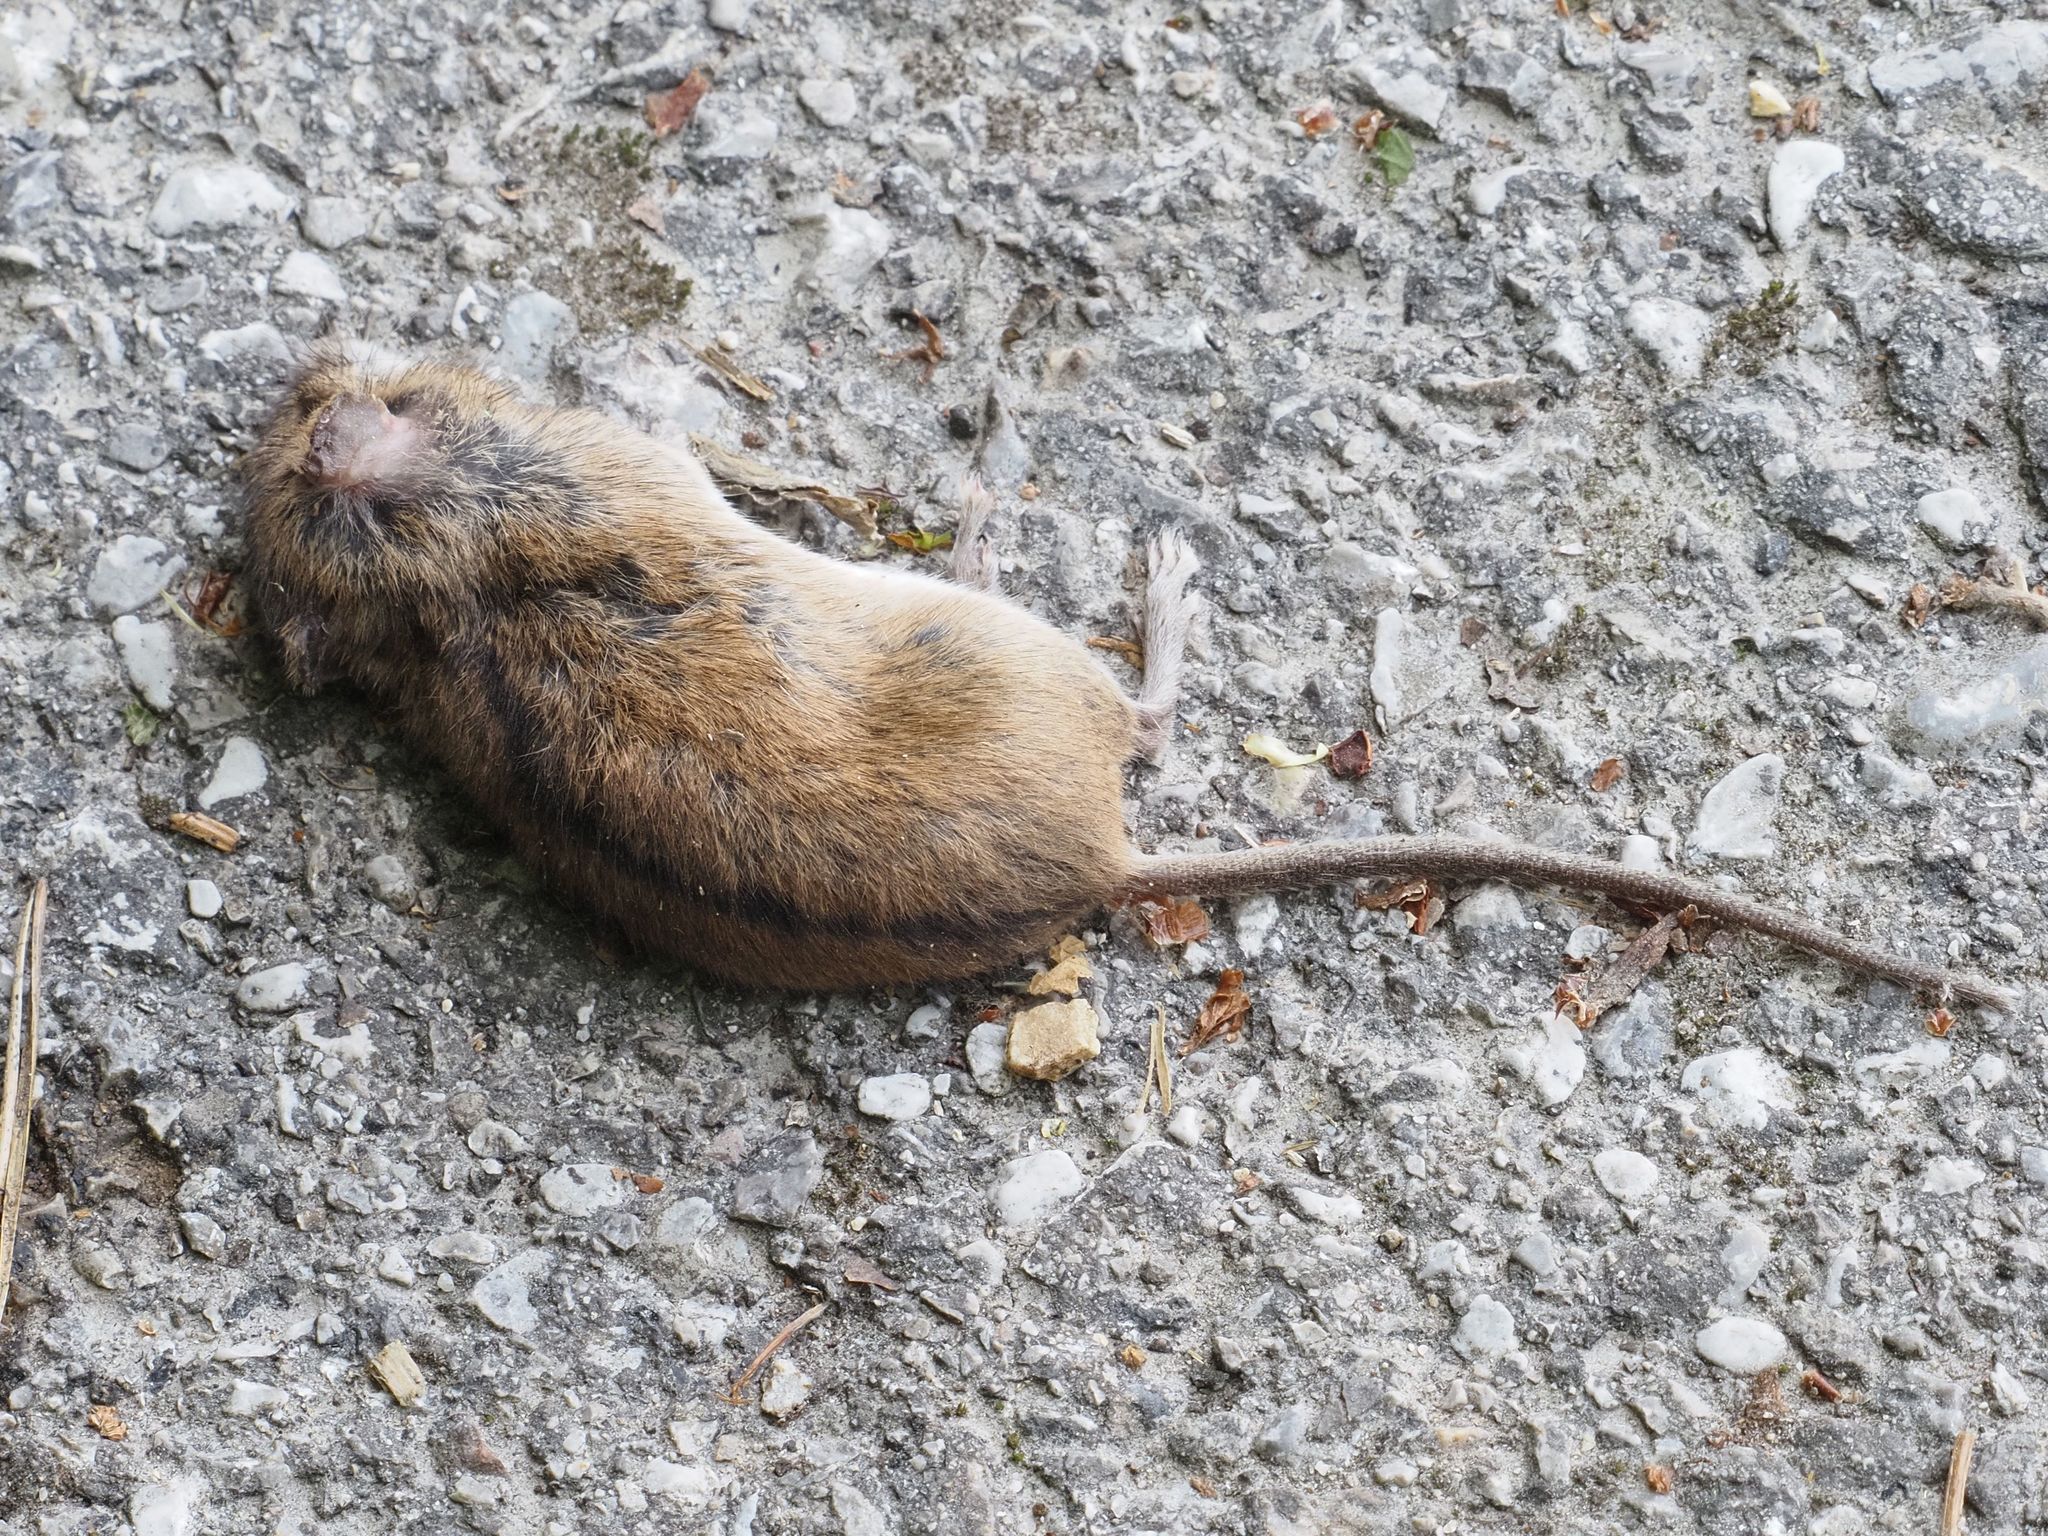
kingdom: Animalia
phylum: Chordata
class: Mammalia
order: Rodentia
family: Muridae
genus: Apodemus
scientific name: Apodemus agrarius
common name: Striped field mouse
